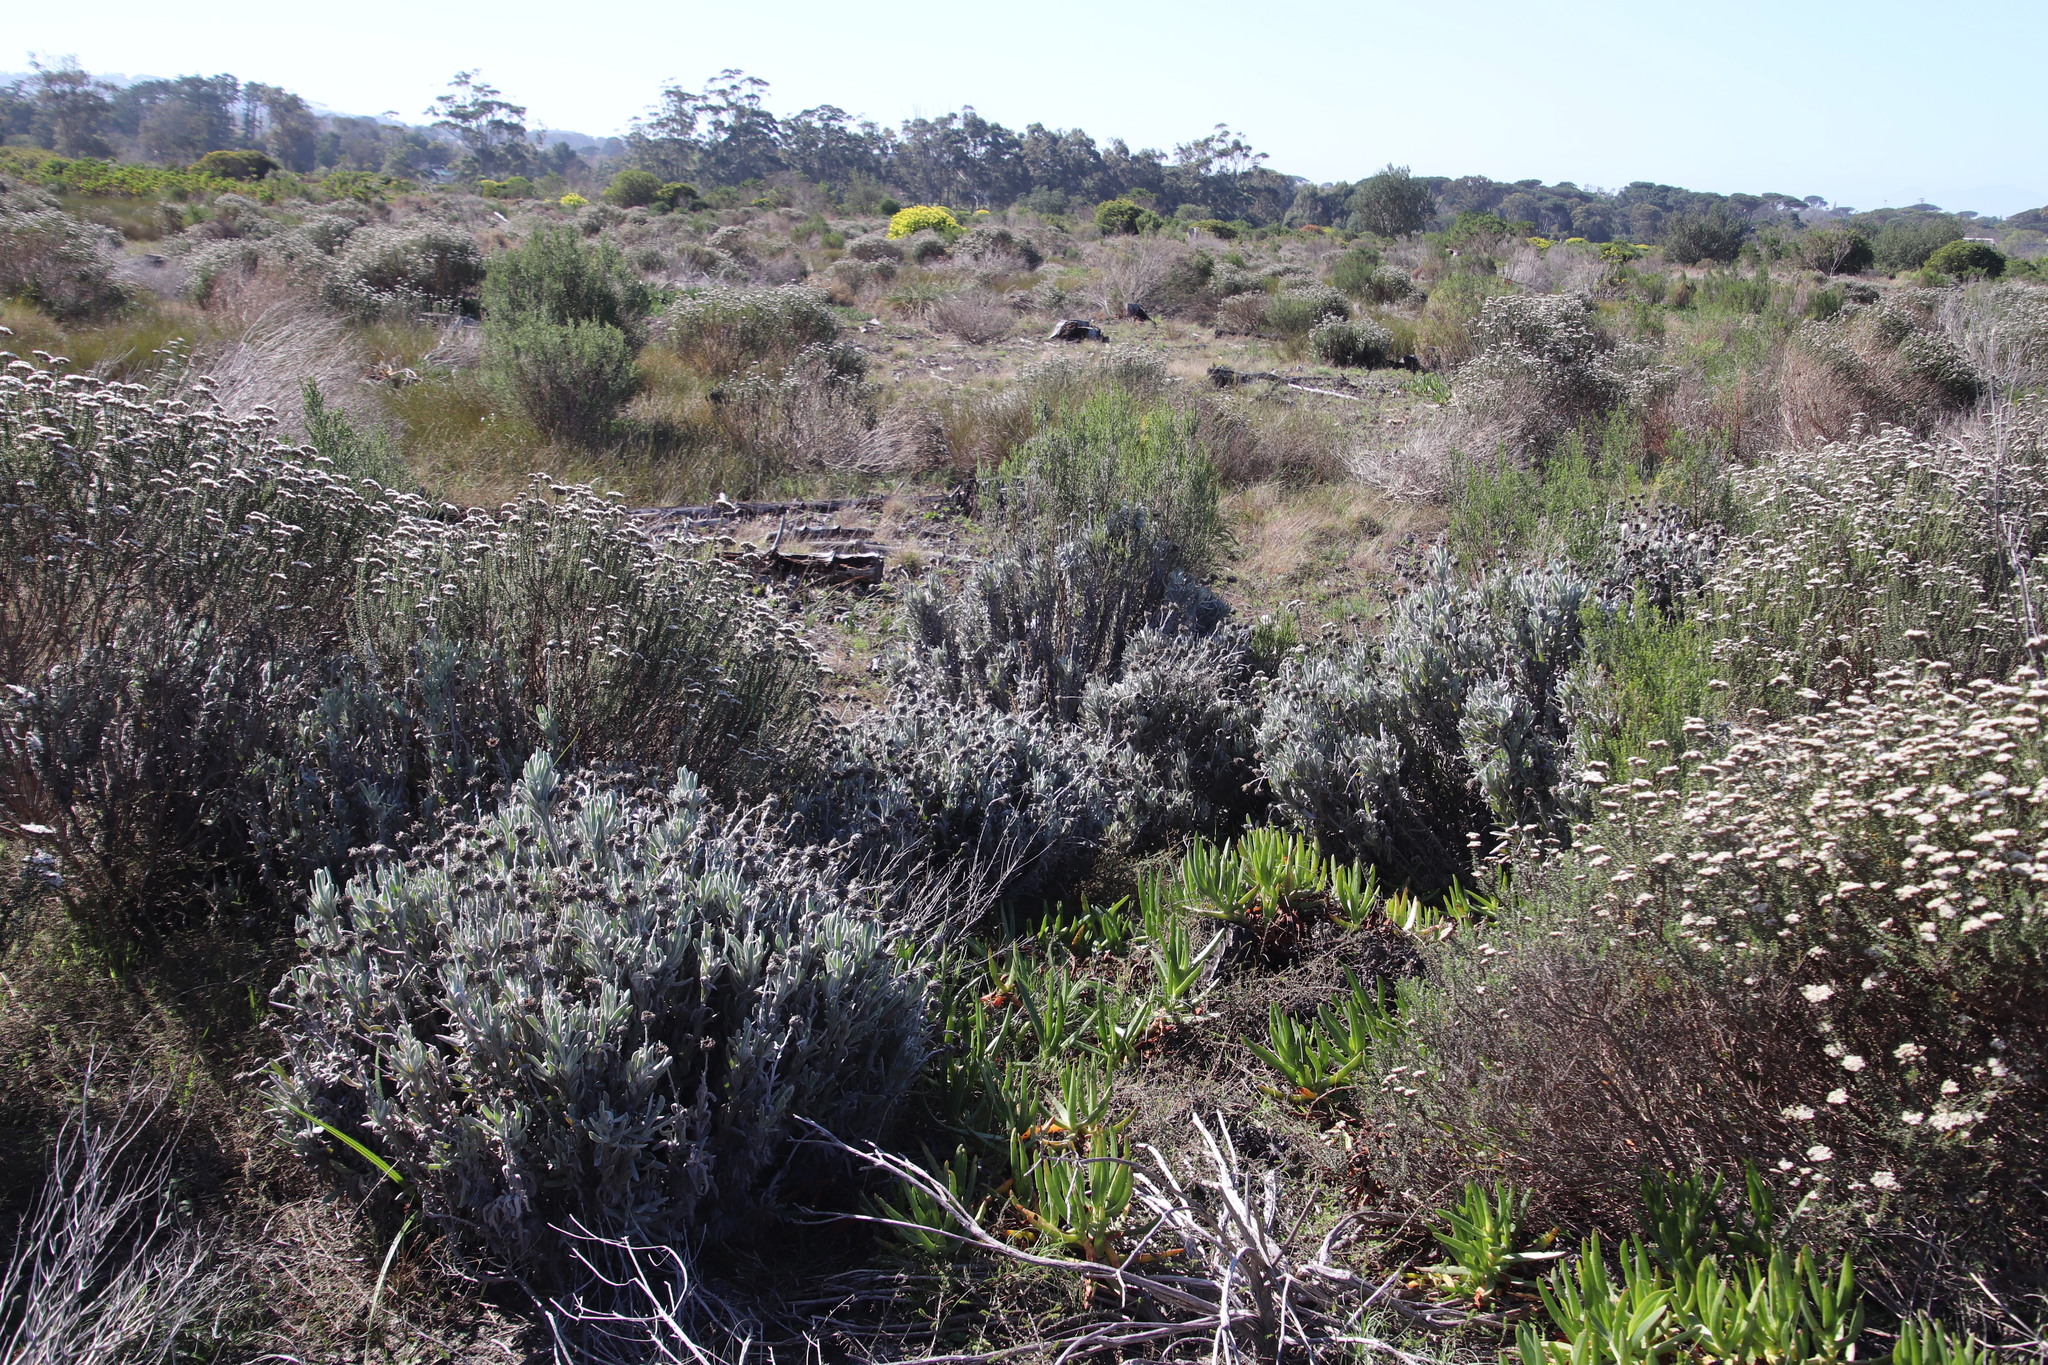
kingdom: Plantae
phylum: Tracheophyta
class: Magnoliopsida
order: Asterales
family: Asteraceae
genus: Syncarpha
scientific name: Syncarpha vestita
